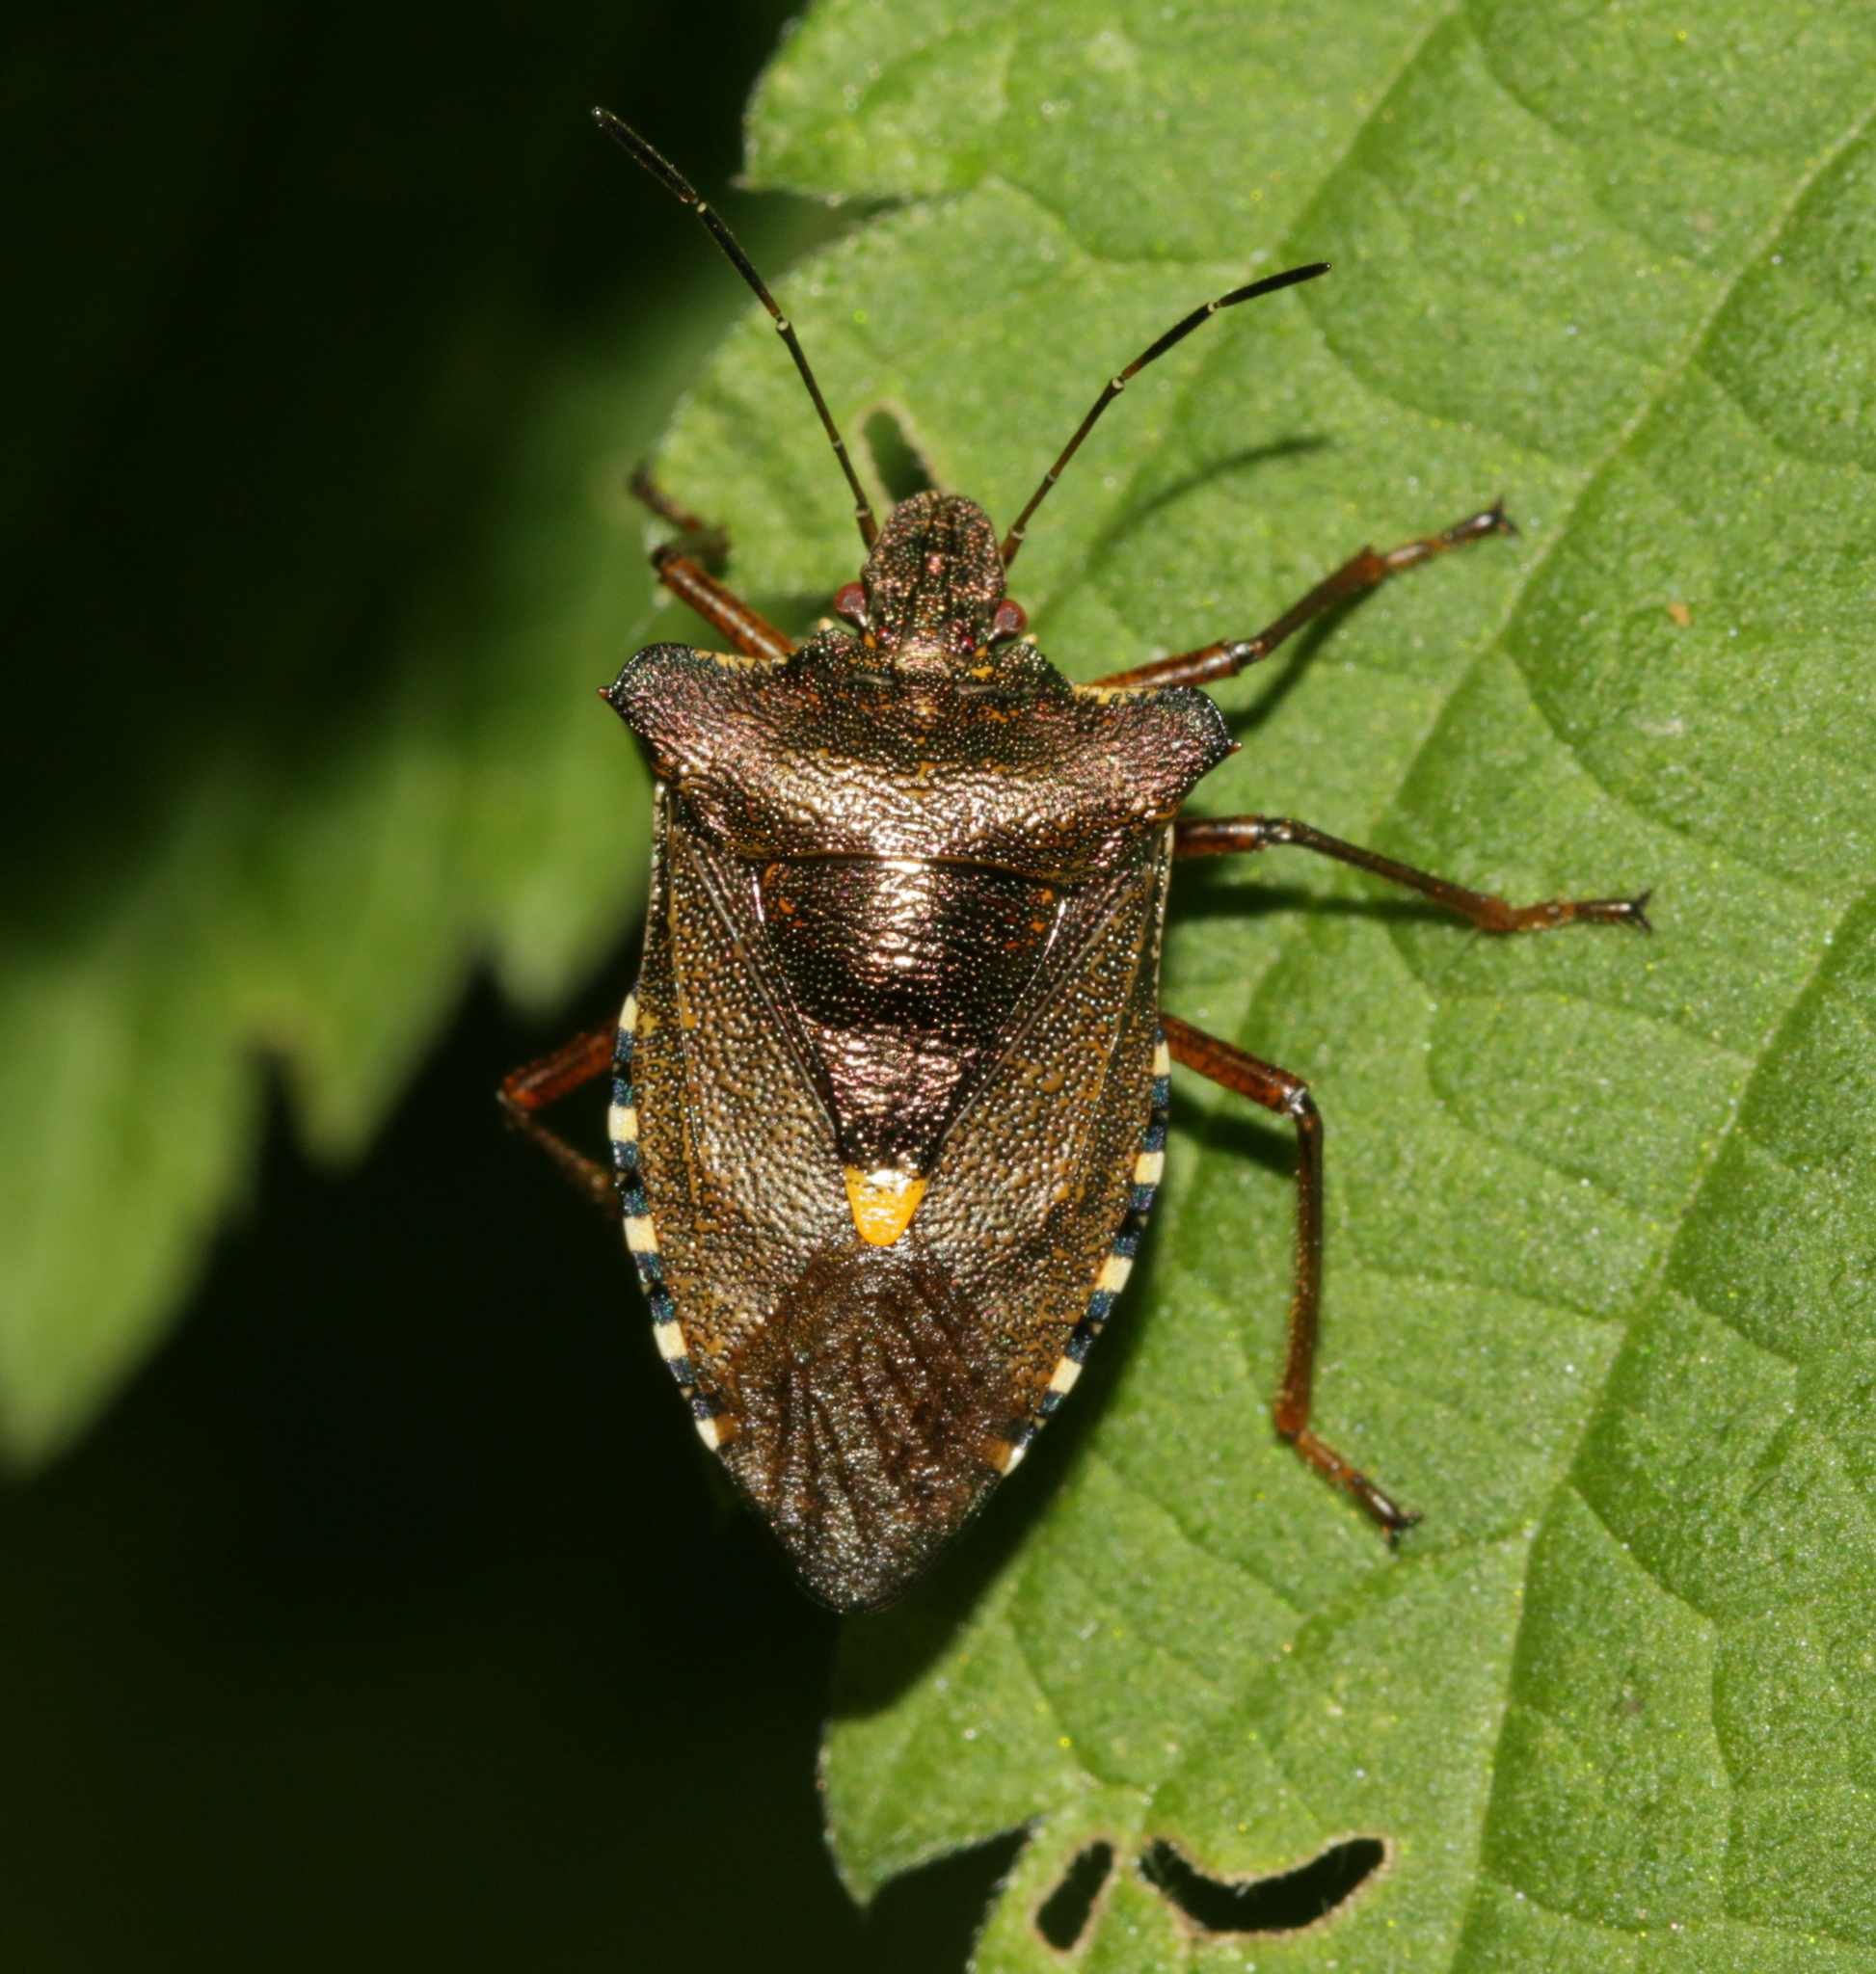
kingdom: Animalia
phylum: Arthropoda
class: Insecta
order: Hemiptera
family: Pentatomidae
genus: Pentatoma
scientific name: Pentatoma rufipes
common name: Forest bug
